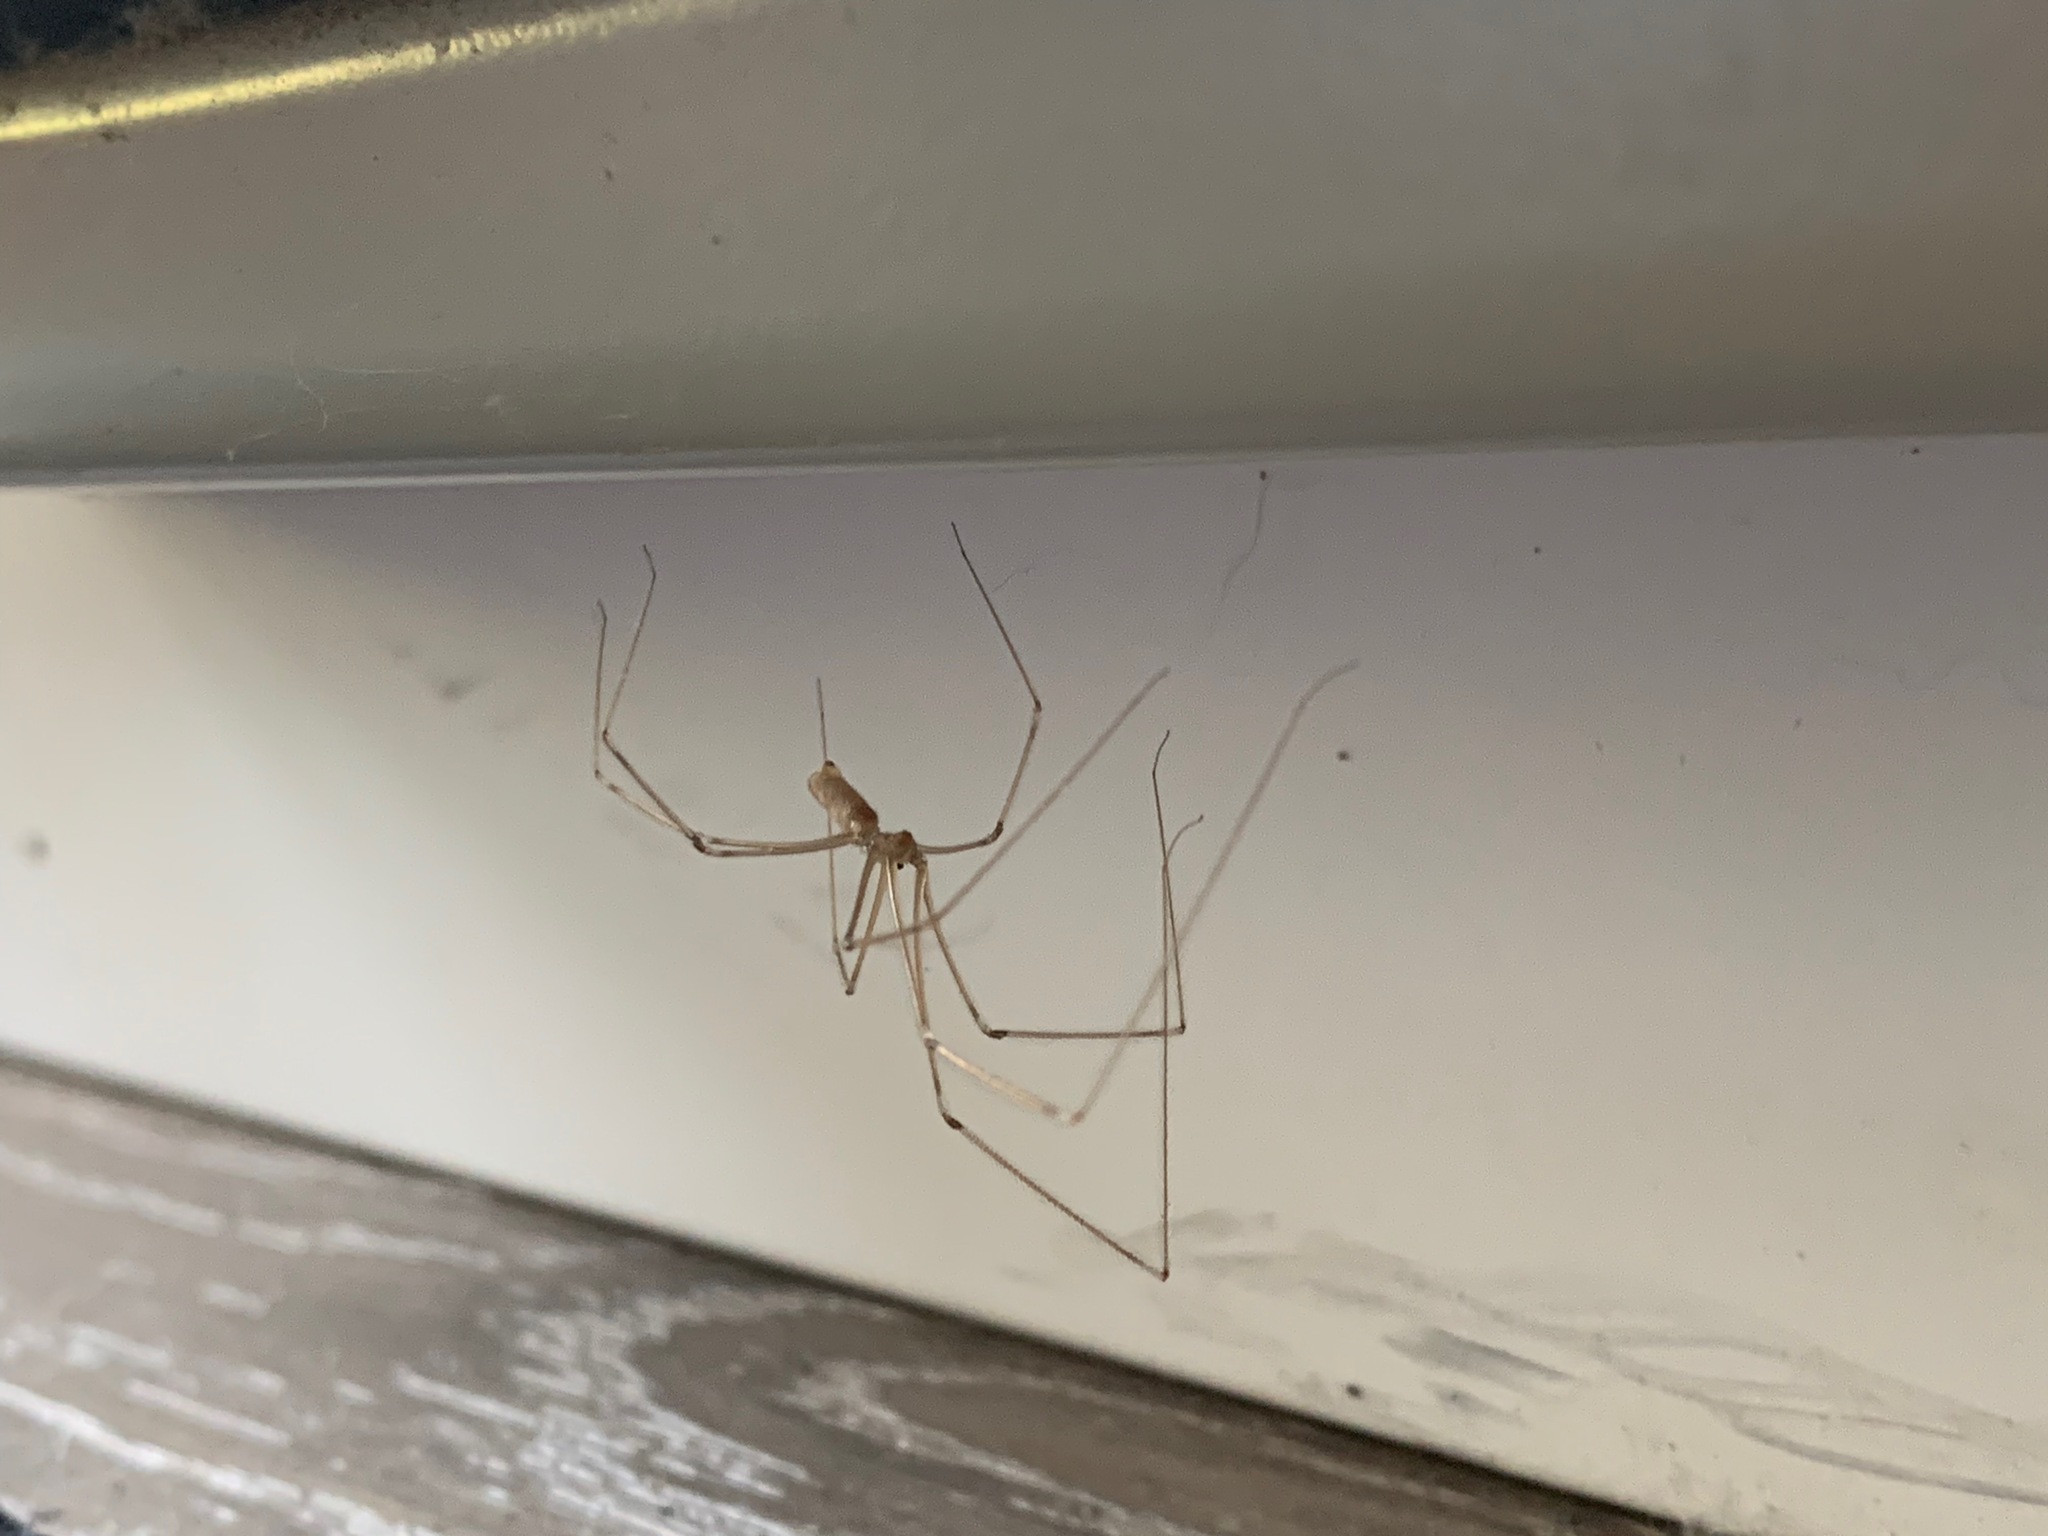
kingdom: Animalia
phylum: Arthropoda
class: Arachnida
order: Araneae
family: Pholcidae
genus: Pholcus
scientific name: Pholcus phalangioides
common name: Longbodied cellar spider
